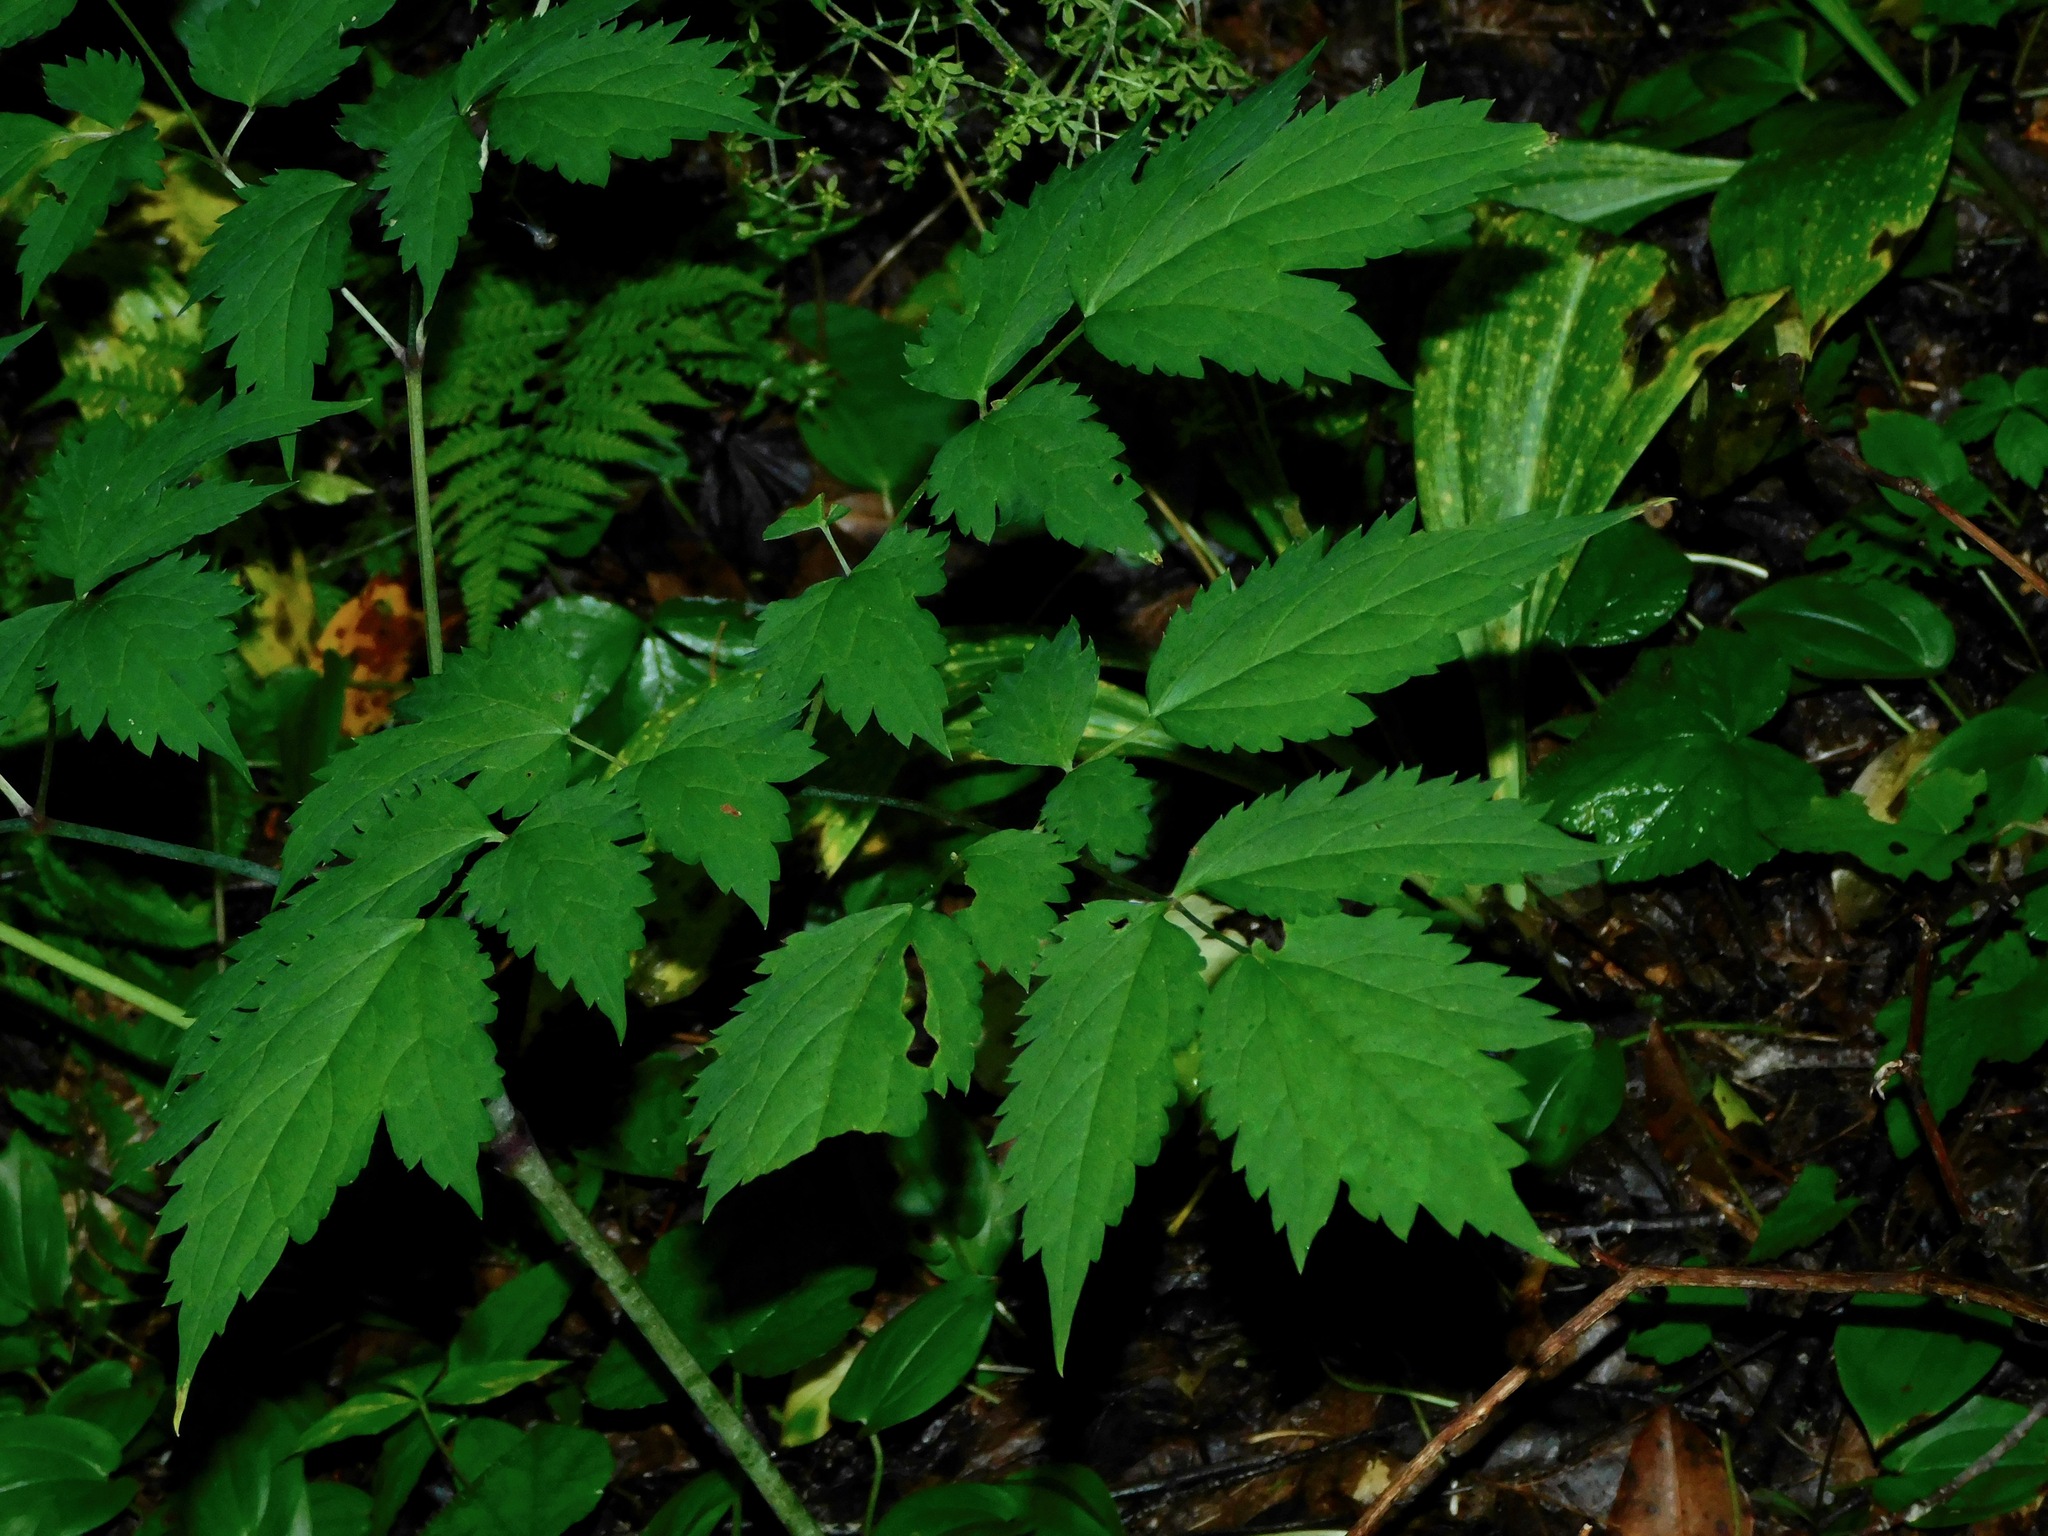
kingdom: Plantae
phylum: Tracheophyta
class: Magnoliopsida
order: Ranunculales
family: Ranunculaceae
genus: Actaea
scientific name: Actaea pachypoda
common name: Doll's-eyes
